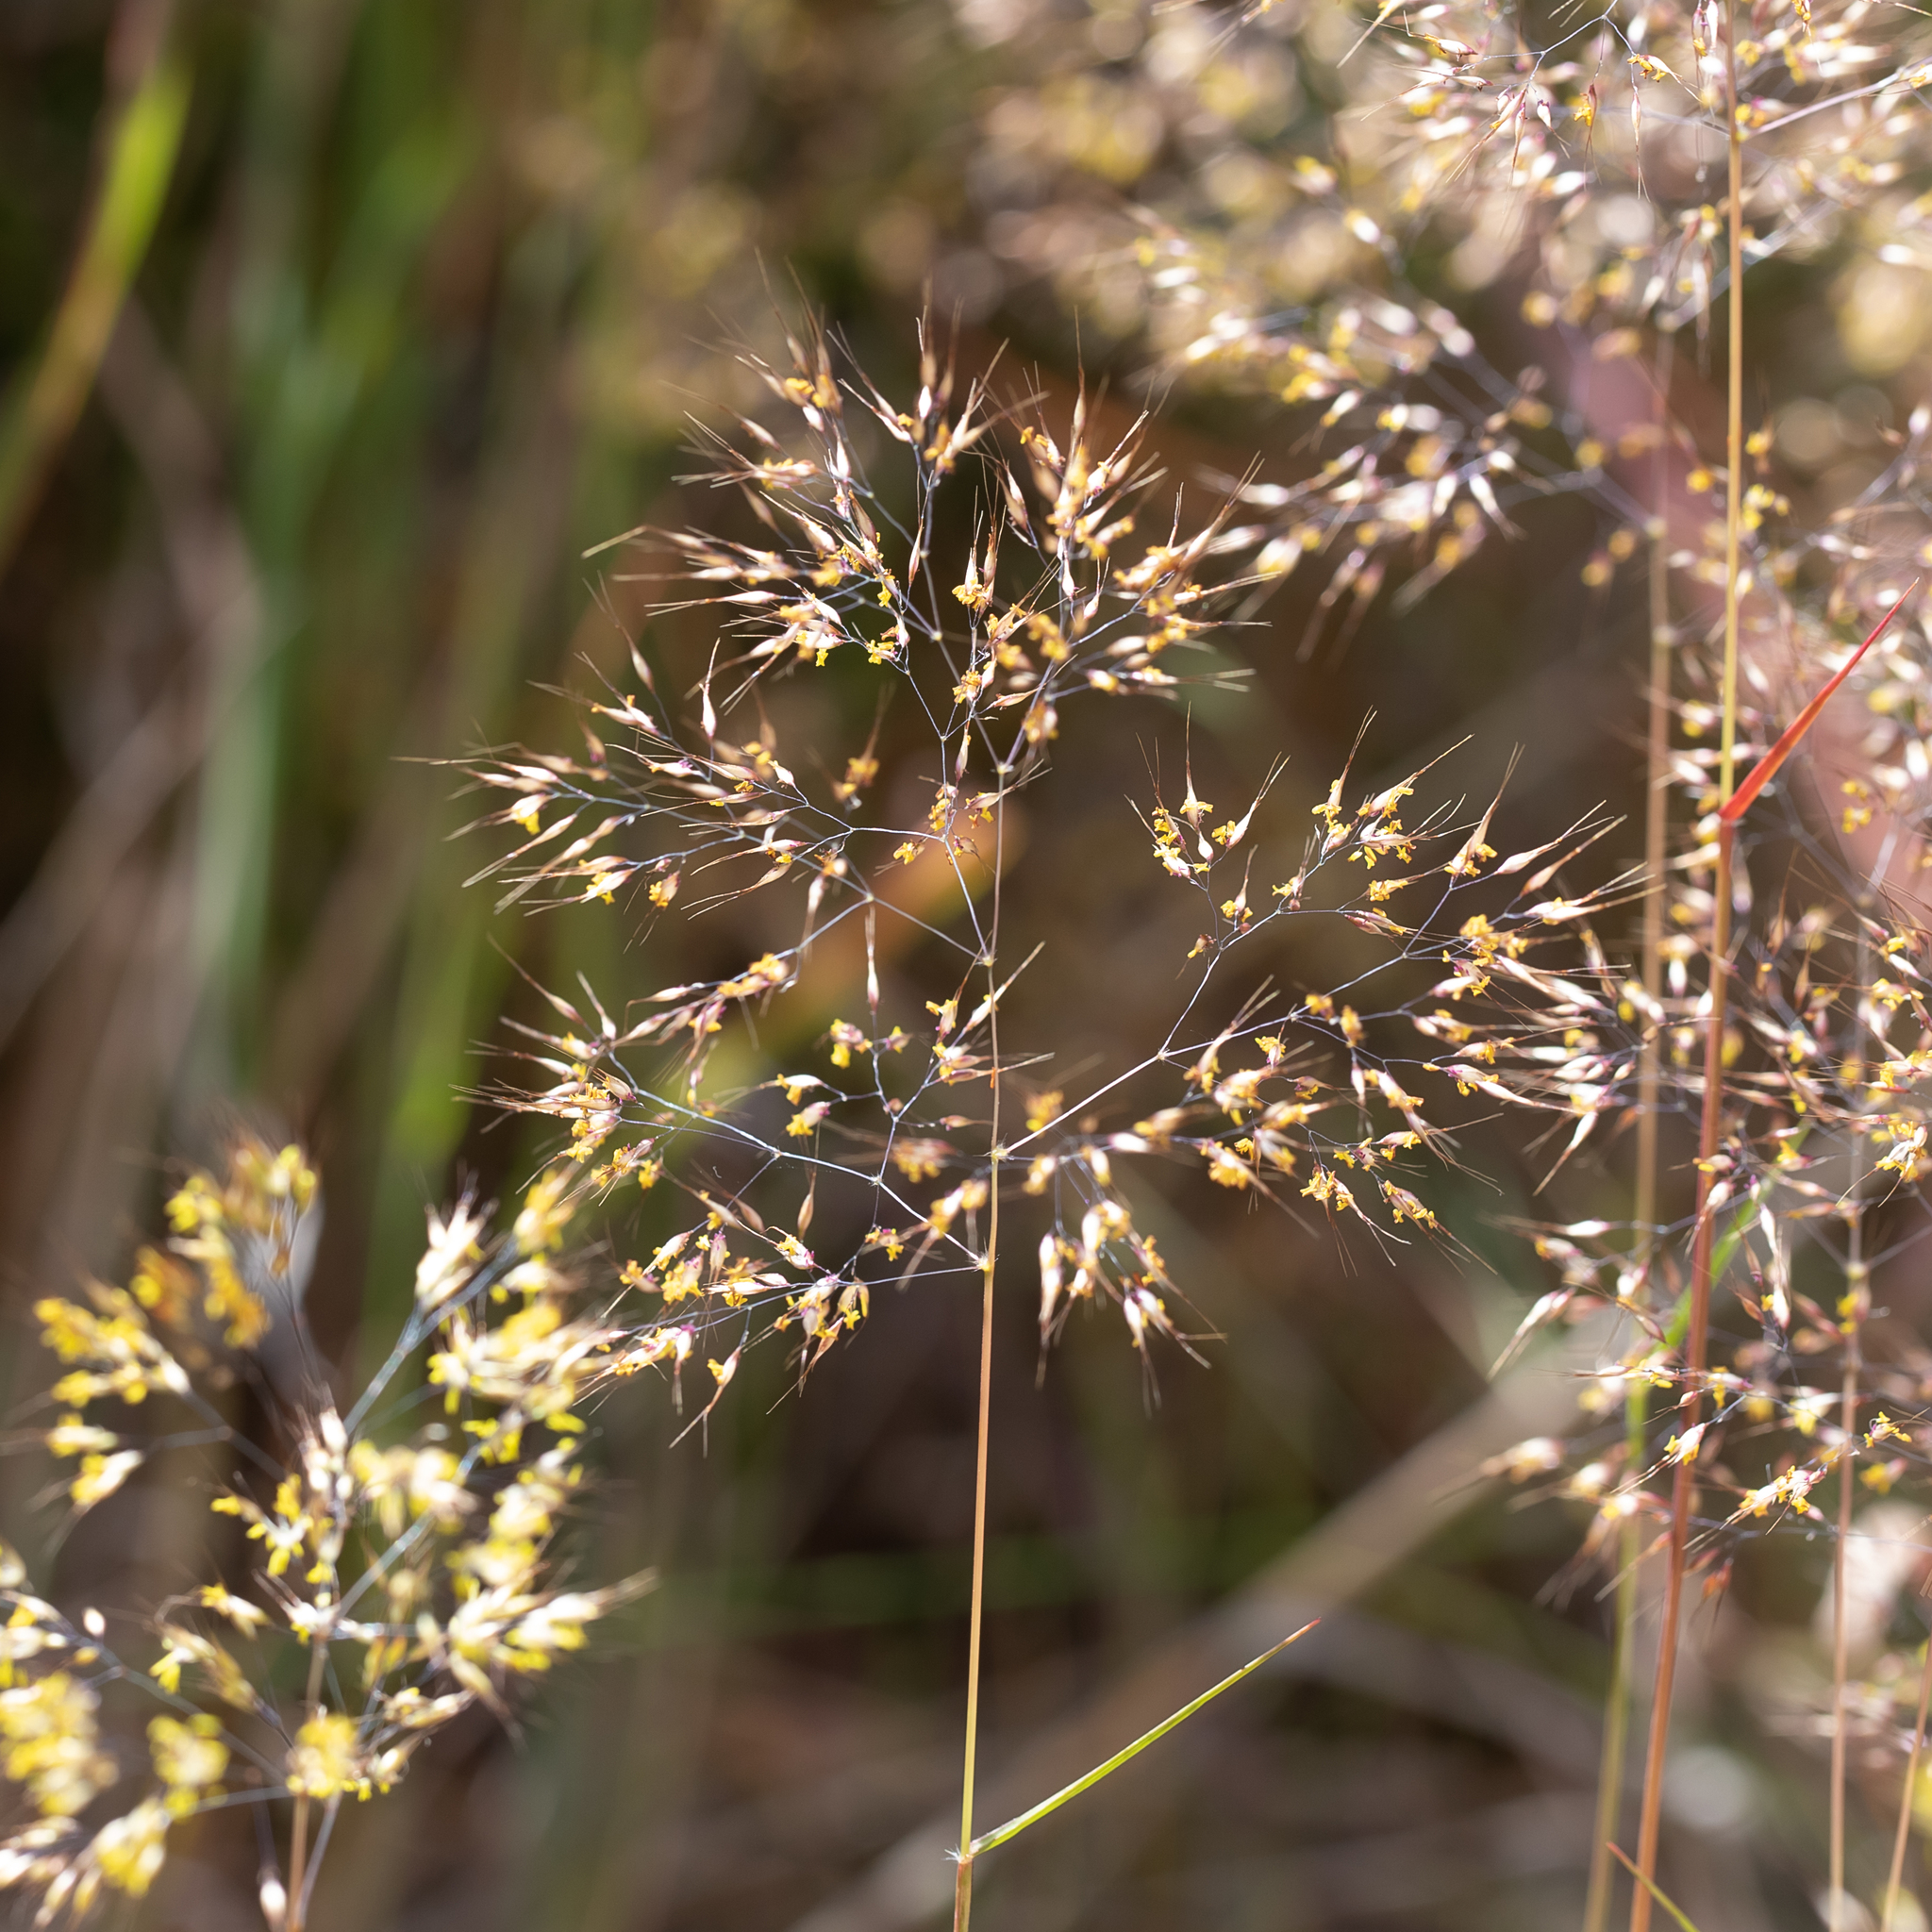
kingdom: Plantae
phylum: Tracheophyta
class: Liliopsida
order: Poales
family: Poaceae
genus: Pentameris
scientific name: Pentameris pallida
